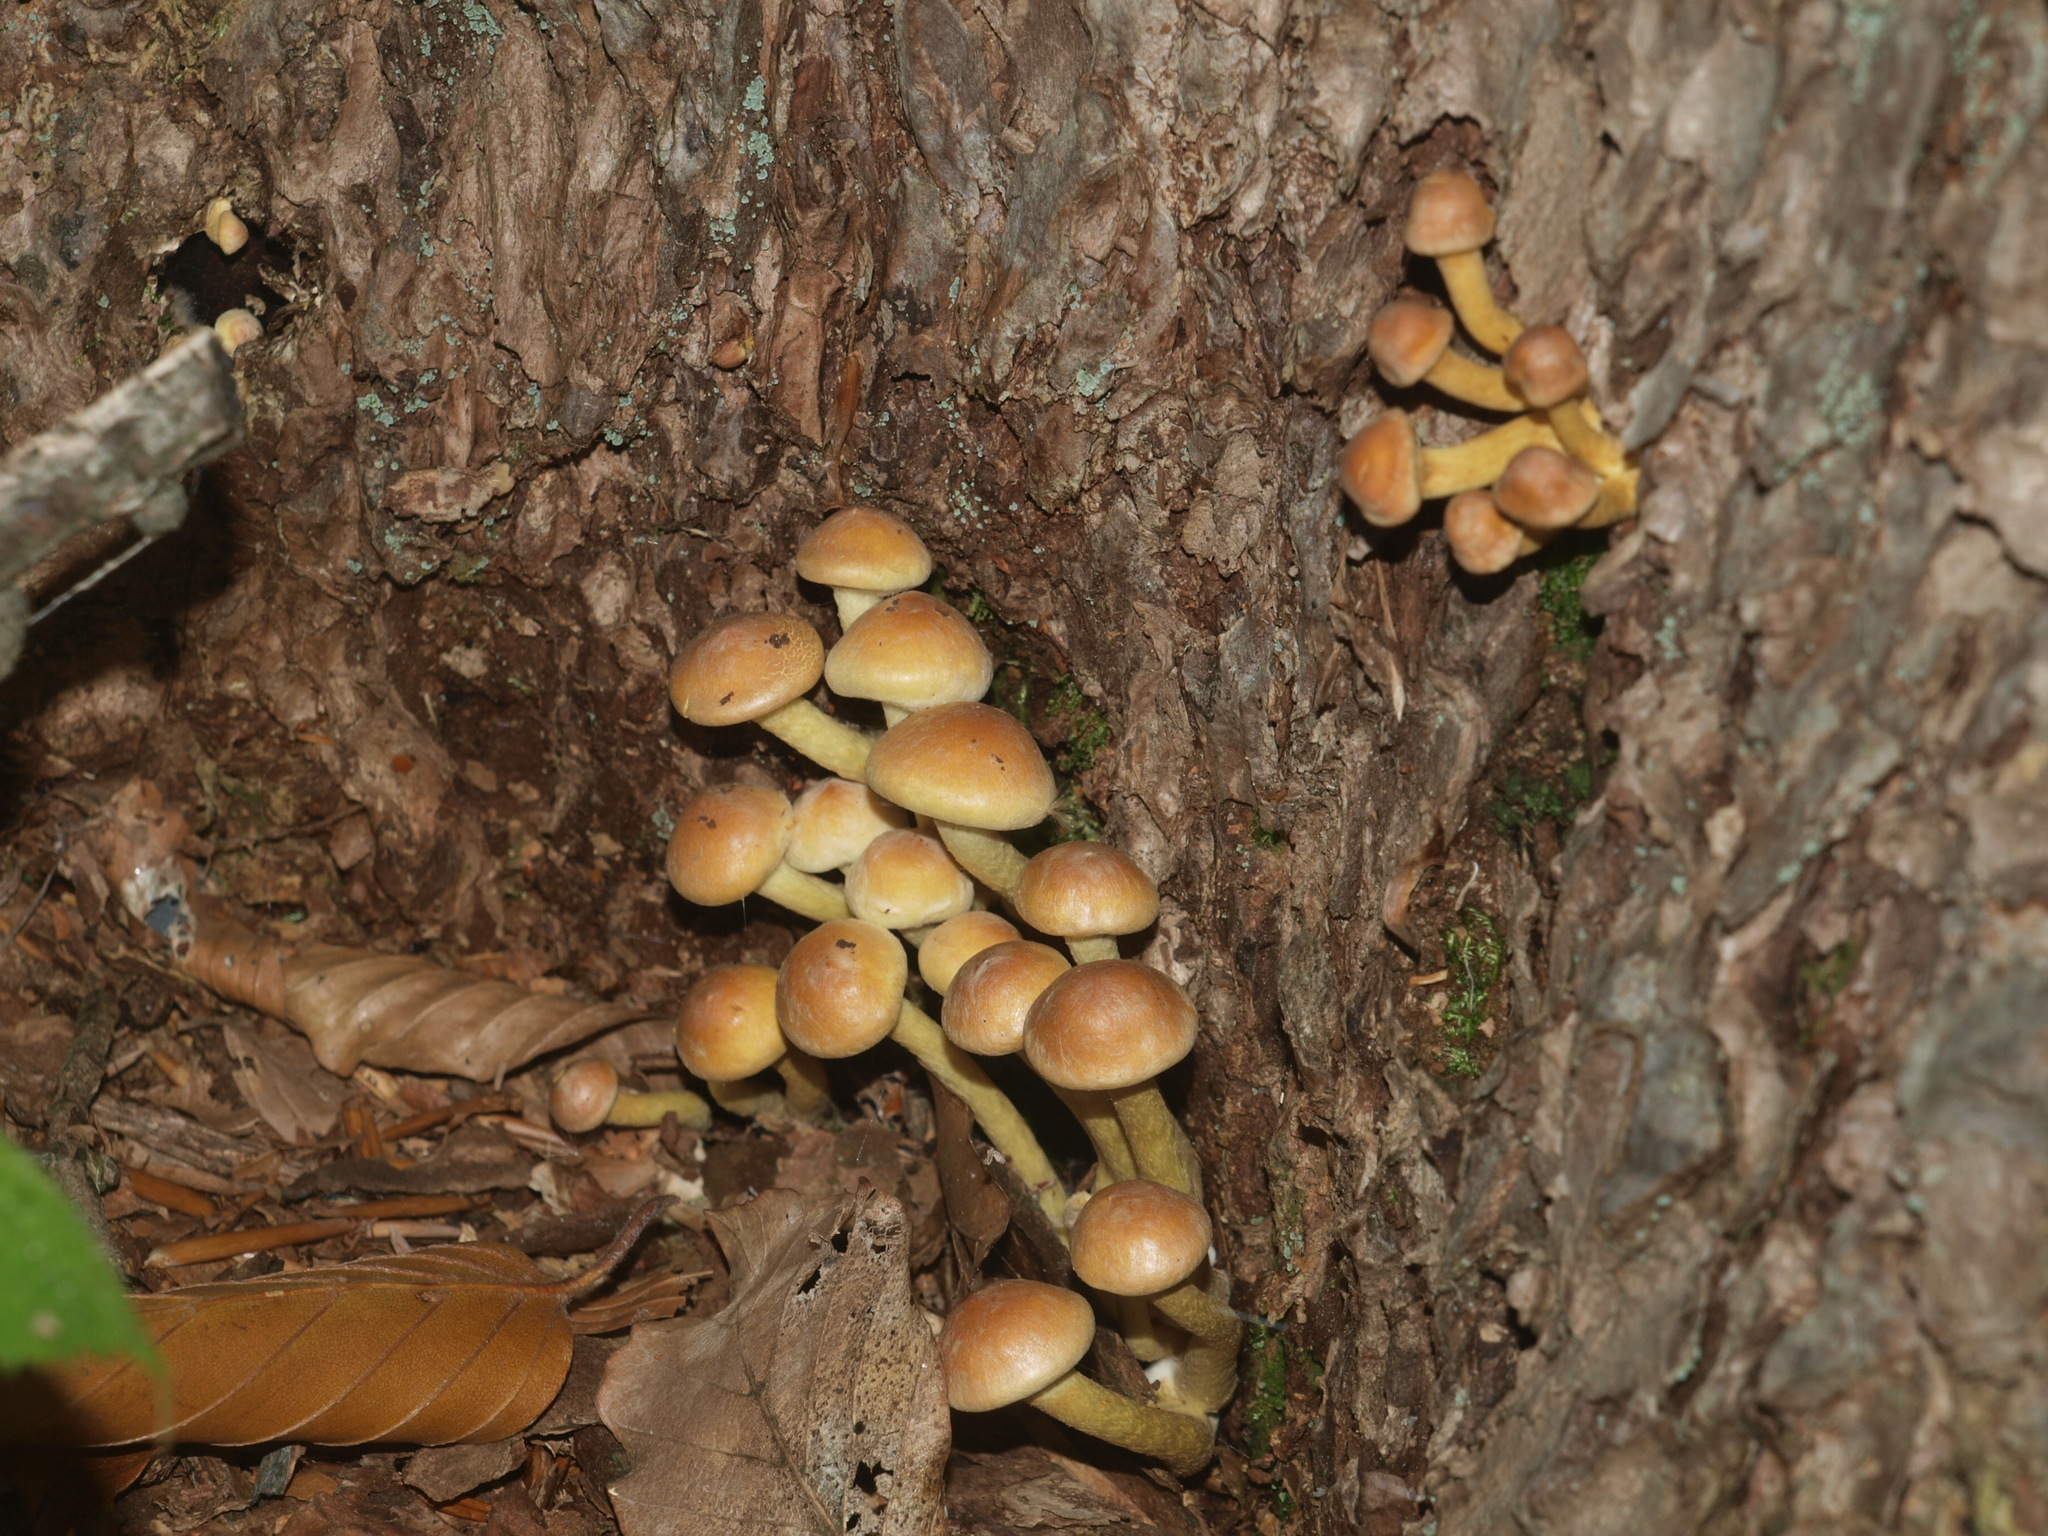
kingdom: Fungi
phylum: Basidiomycota
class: Agaricomycetes
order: Agaricales
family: Strophariaceae
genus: Hypholoma
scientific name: Hypholoma capnoides
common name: Conifer tuft
